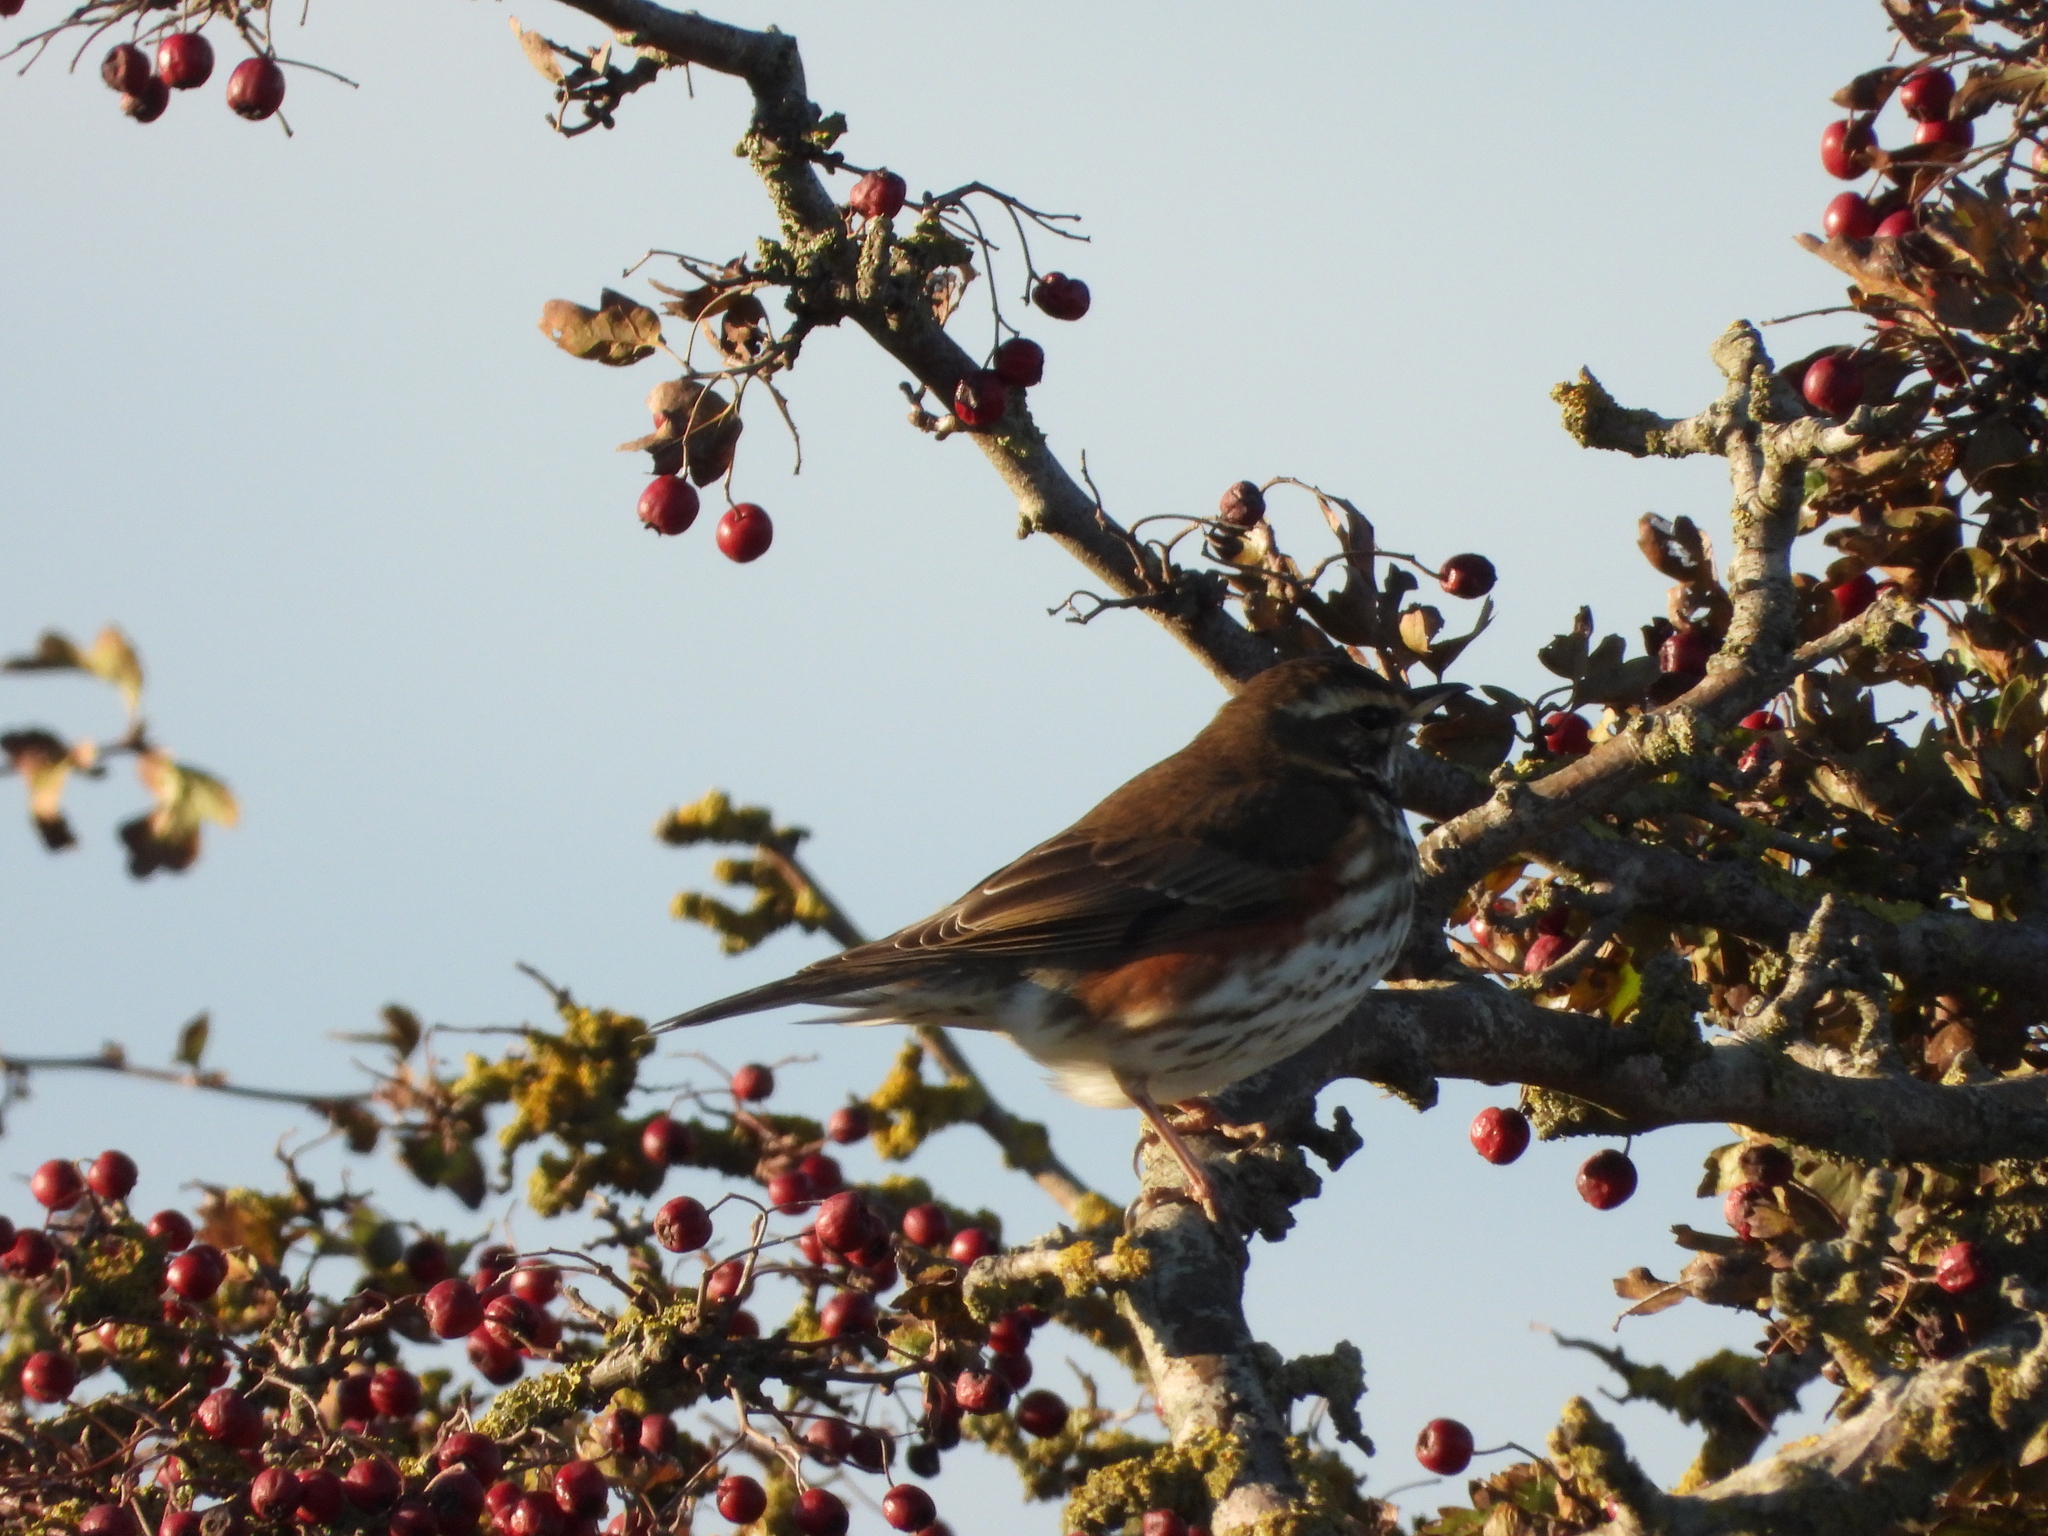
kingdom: Animalia
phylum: Chordata
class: Aves
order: Passeriformes
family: Turdidae
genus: Turdus
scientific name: Turdus iliacus
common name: Redwing
